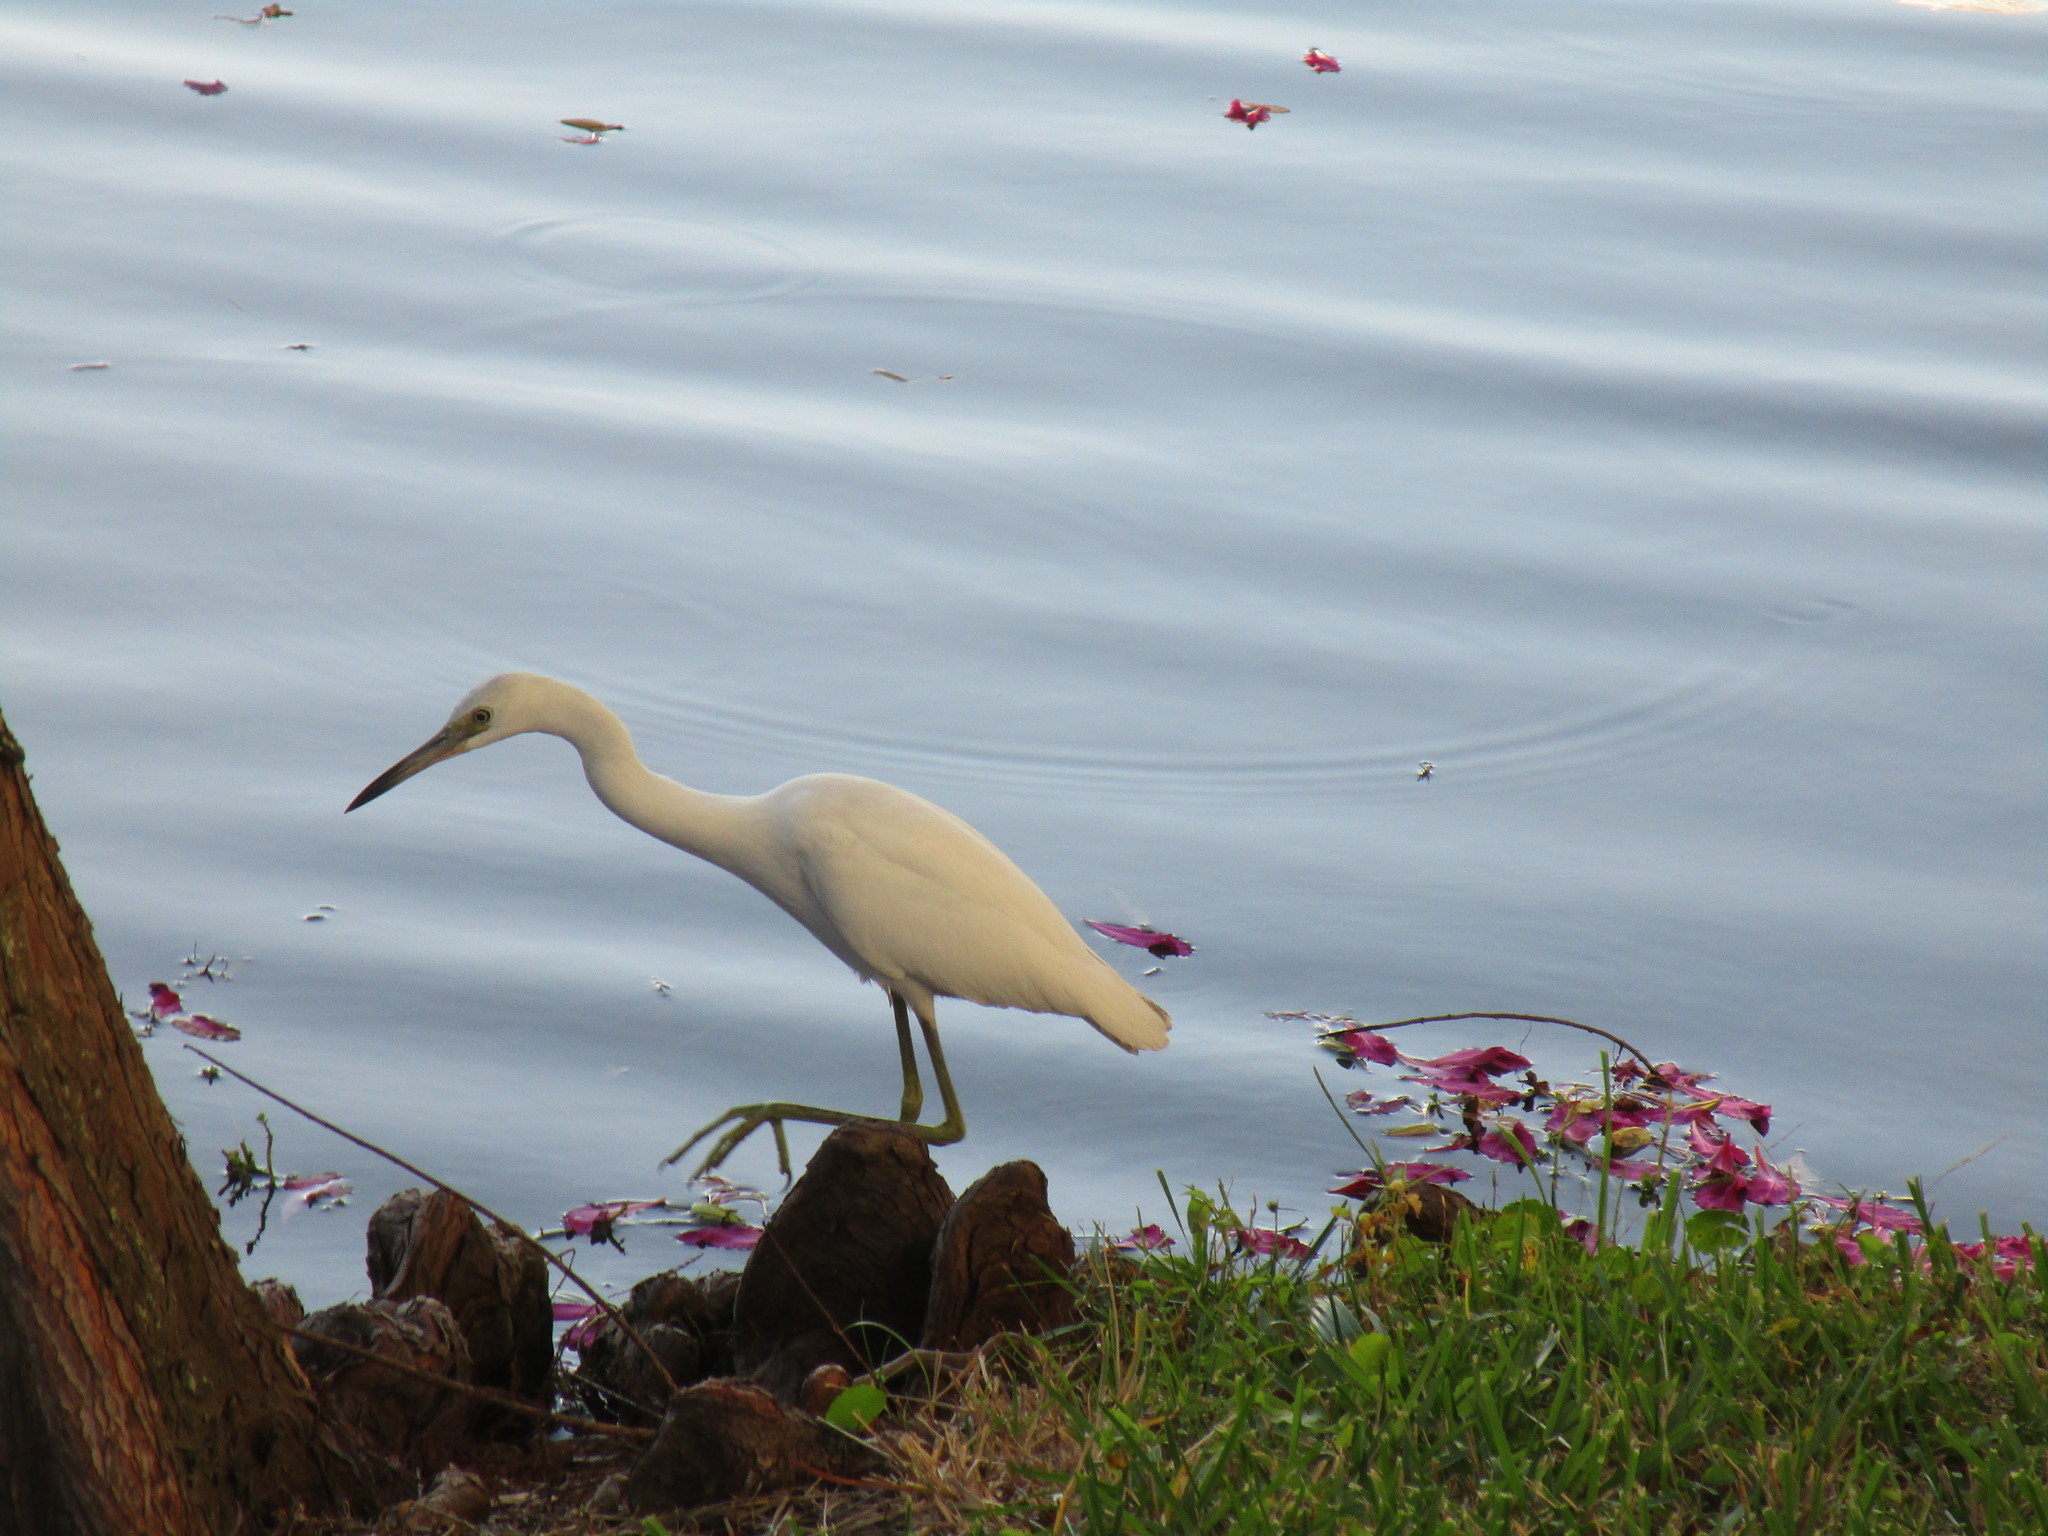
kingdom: Animalia
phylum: Chordata
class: Aves
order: Pelecaniformes
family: Ardeidae
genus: Egretta
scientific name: Egretta caerulea
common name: Little blue heron
